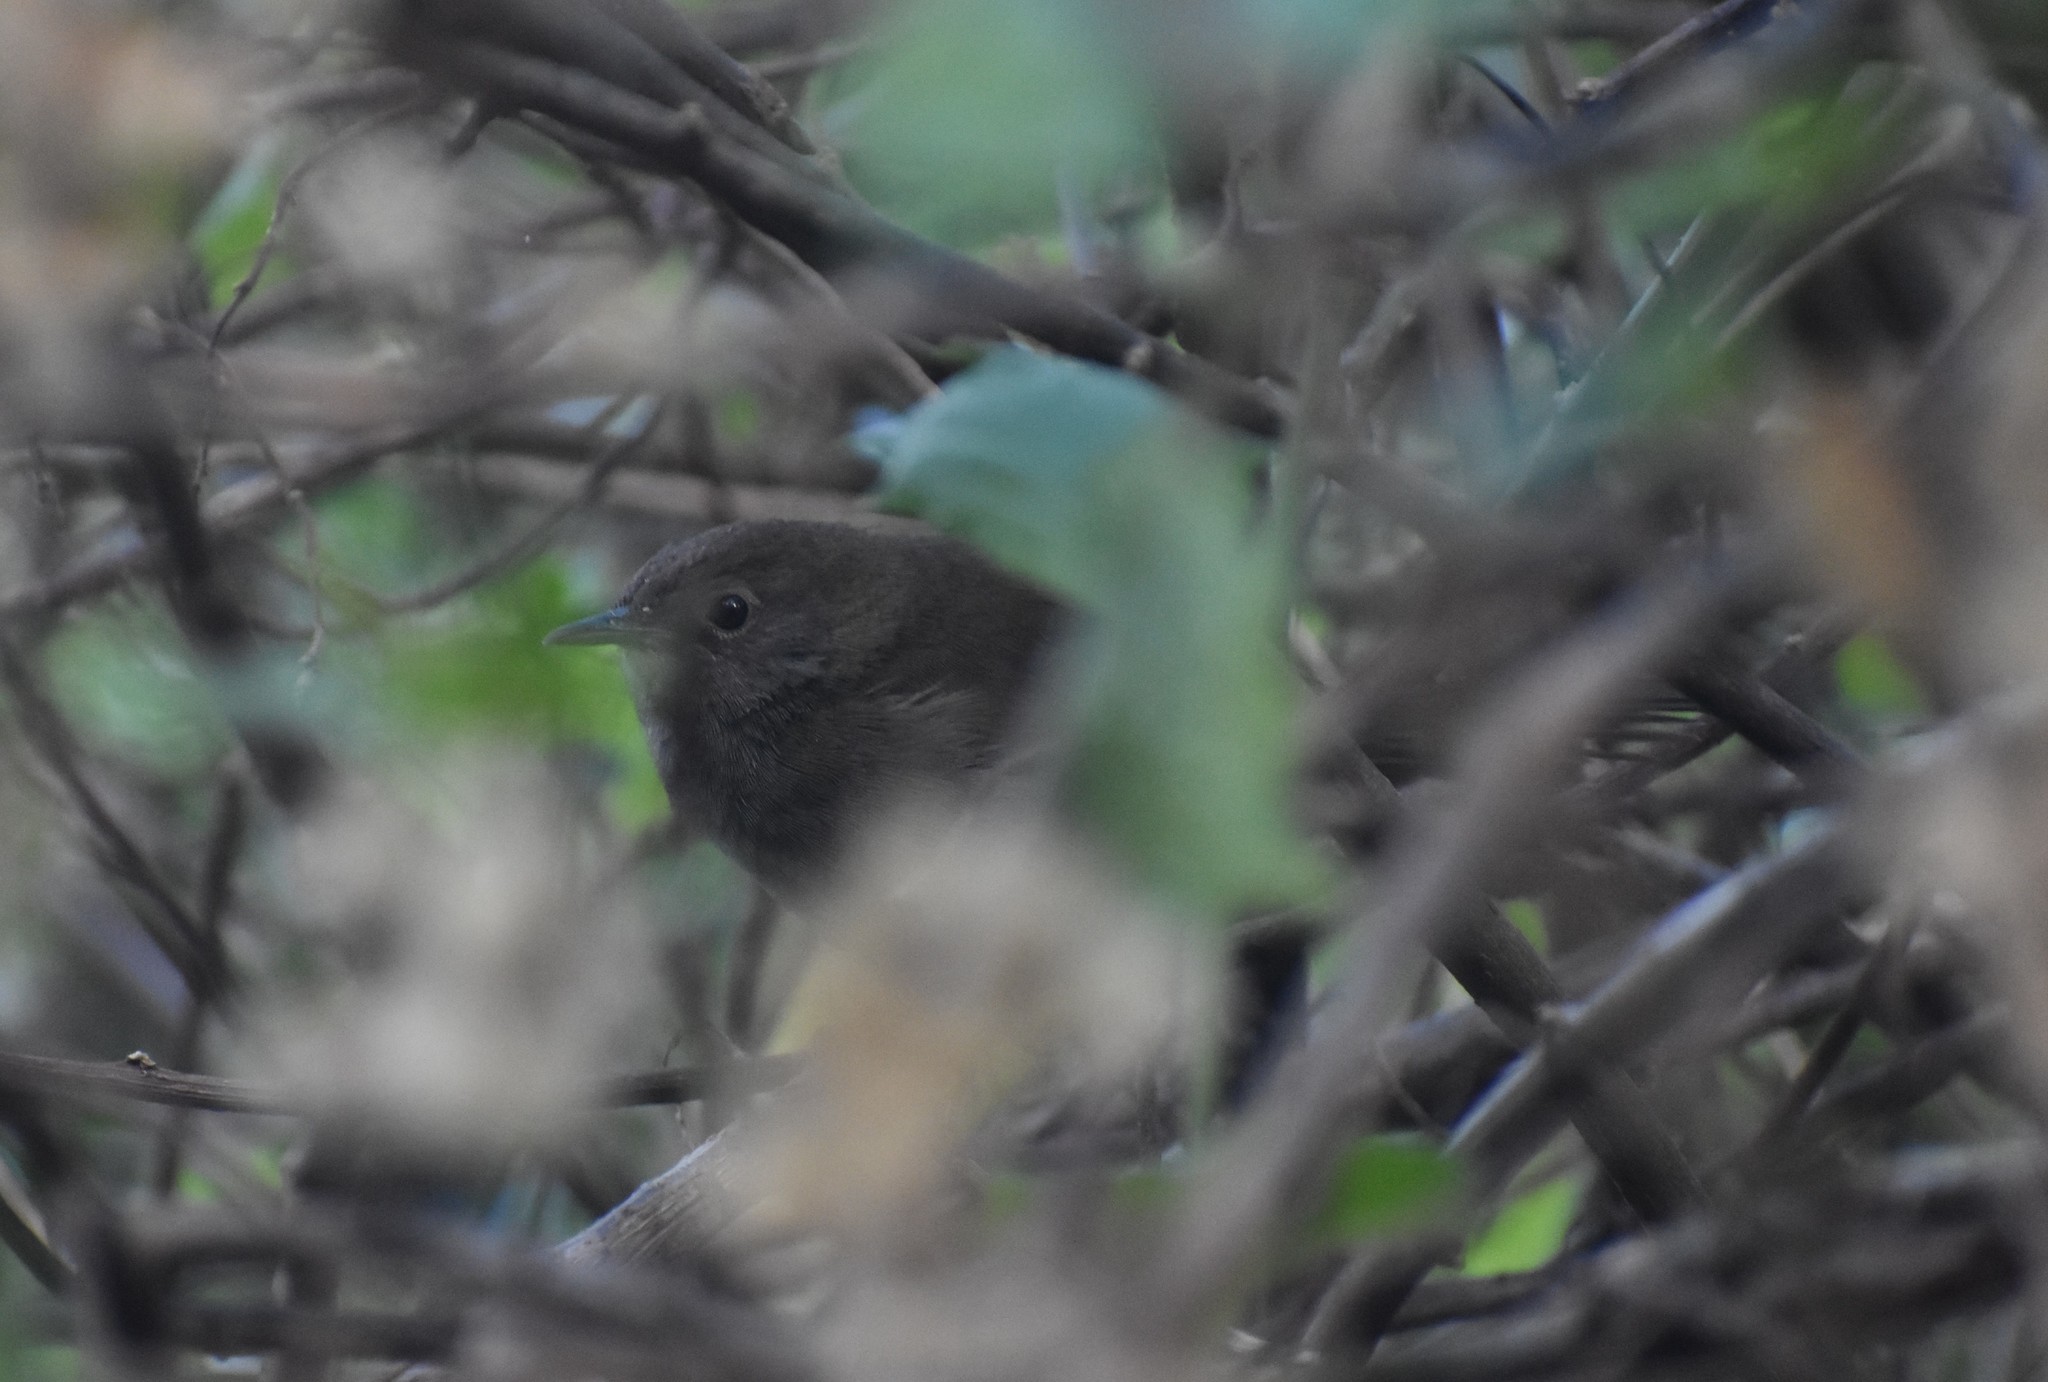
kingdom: Animalia
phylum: Chordata
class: Aves
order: Passeriformes
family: Locustellidae
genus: Bradypterus
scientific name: Bradypterus sylvaticus
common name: Knysna warbler
